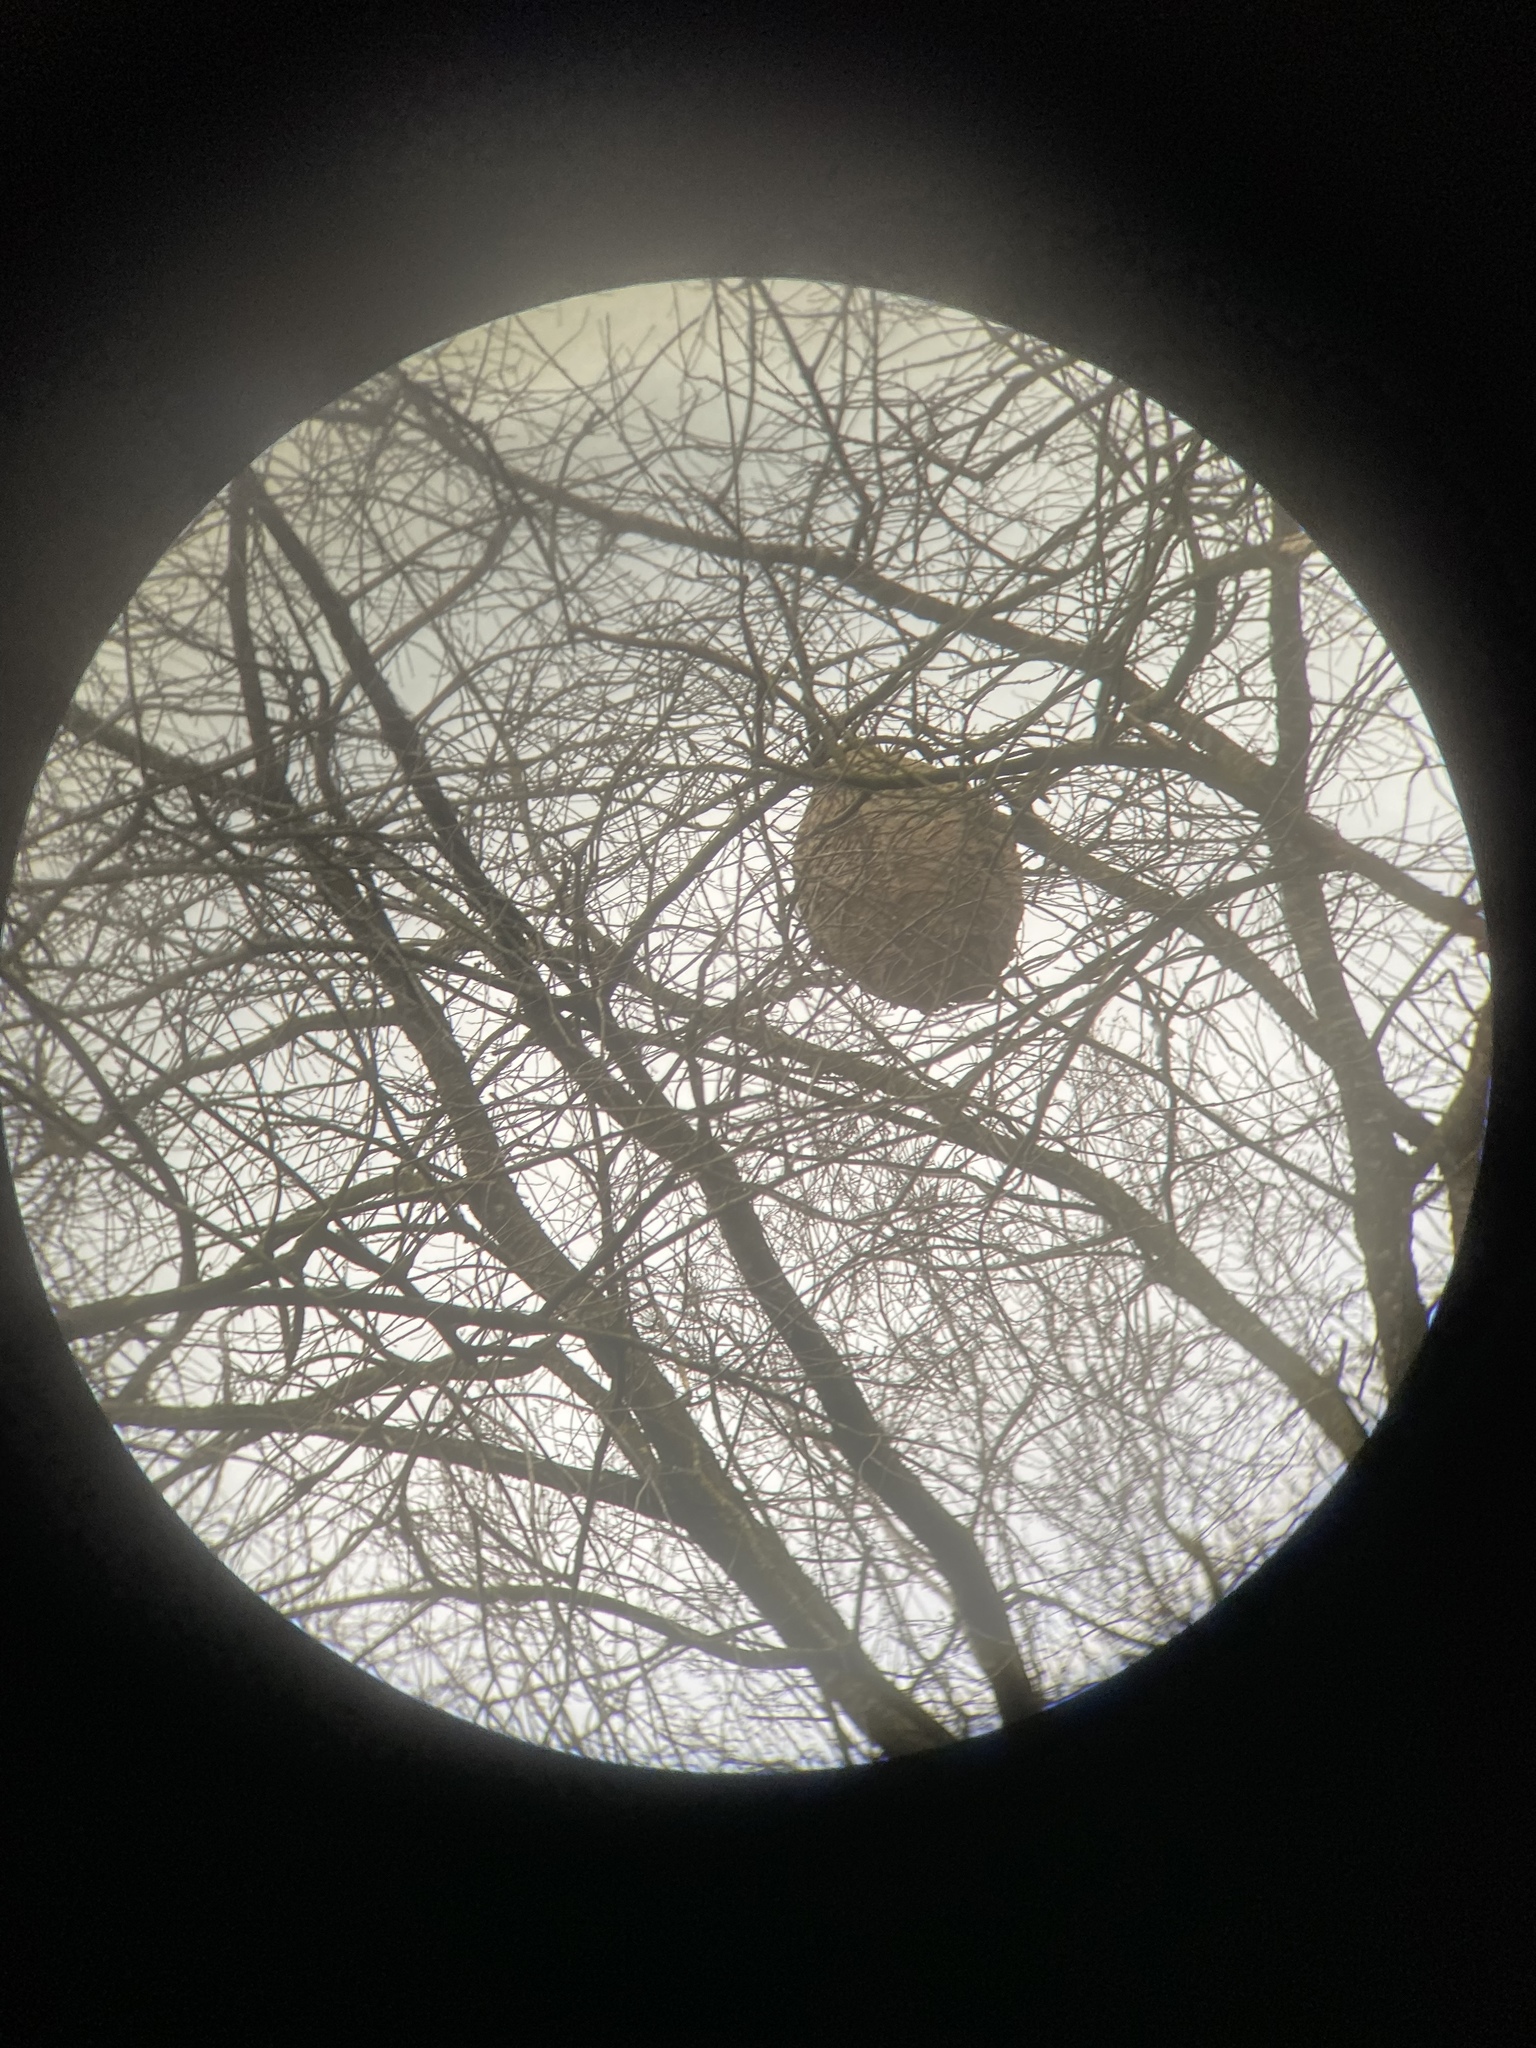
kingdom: Animalia
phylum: Arthropoda
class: Insecta
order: Hymenoptera
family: Vespidae
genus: Vespa
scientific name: Vespa velutina
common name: Asian hornet
